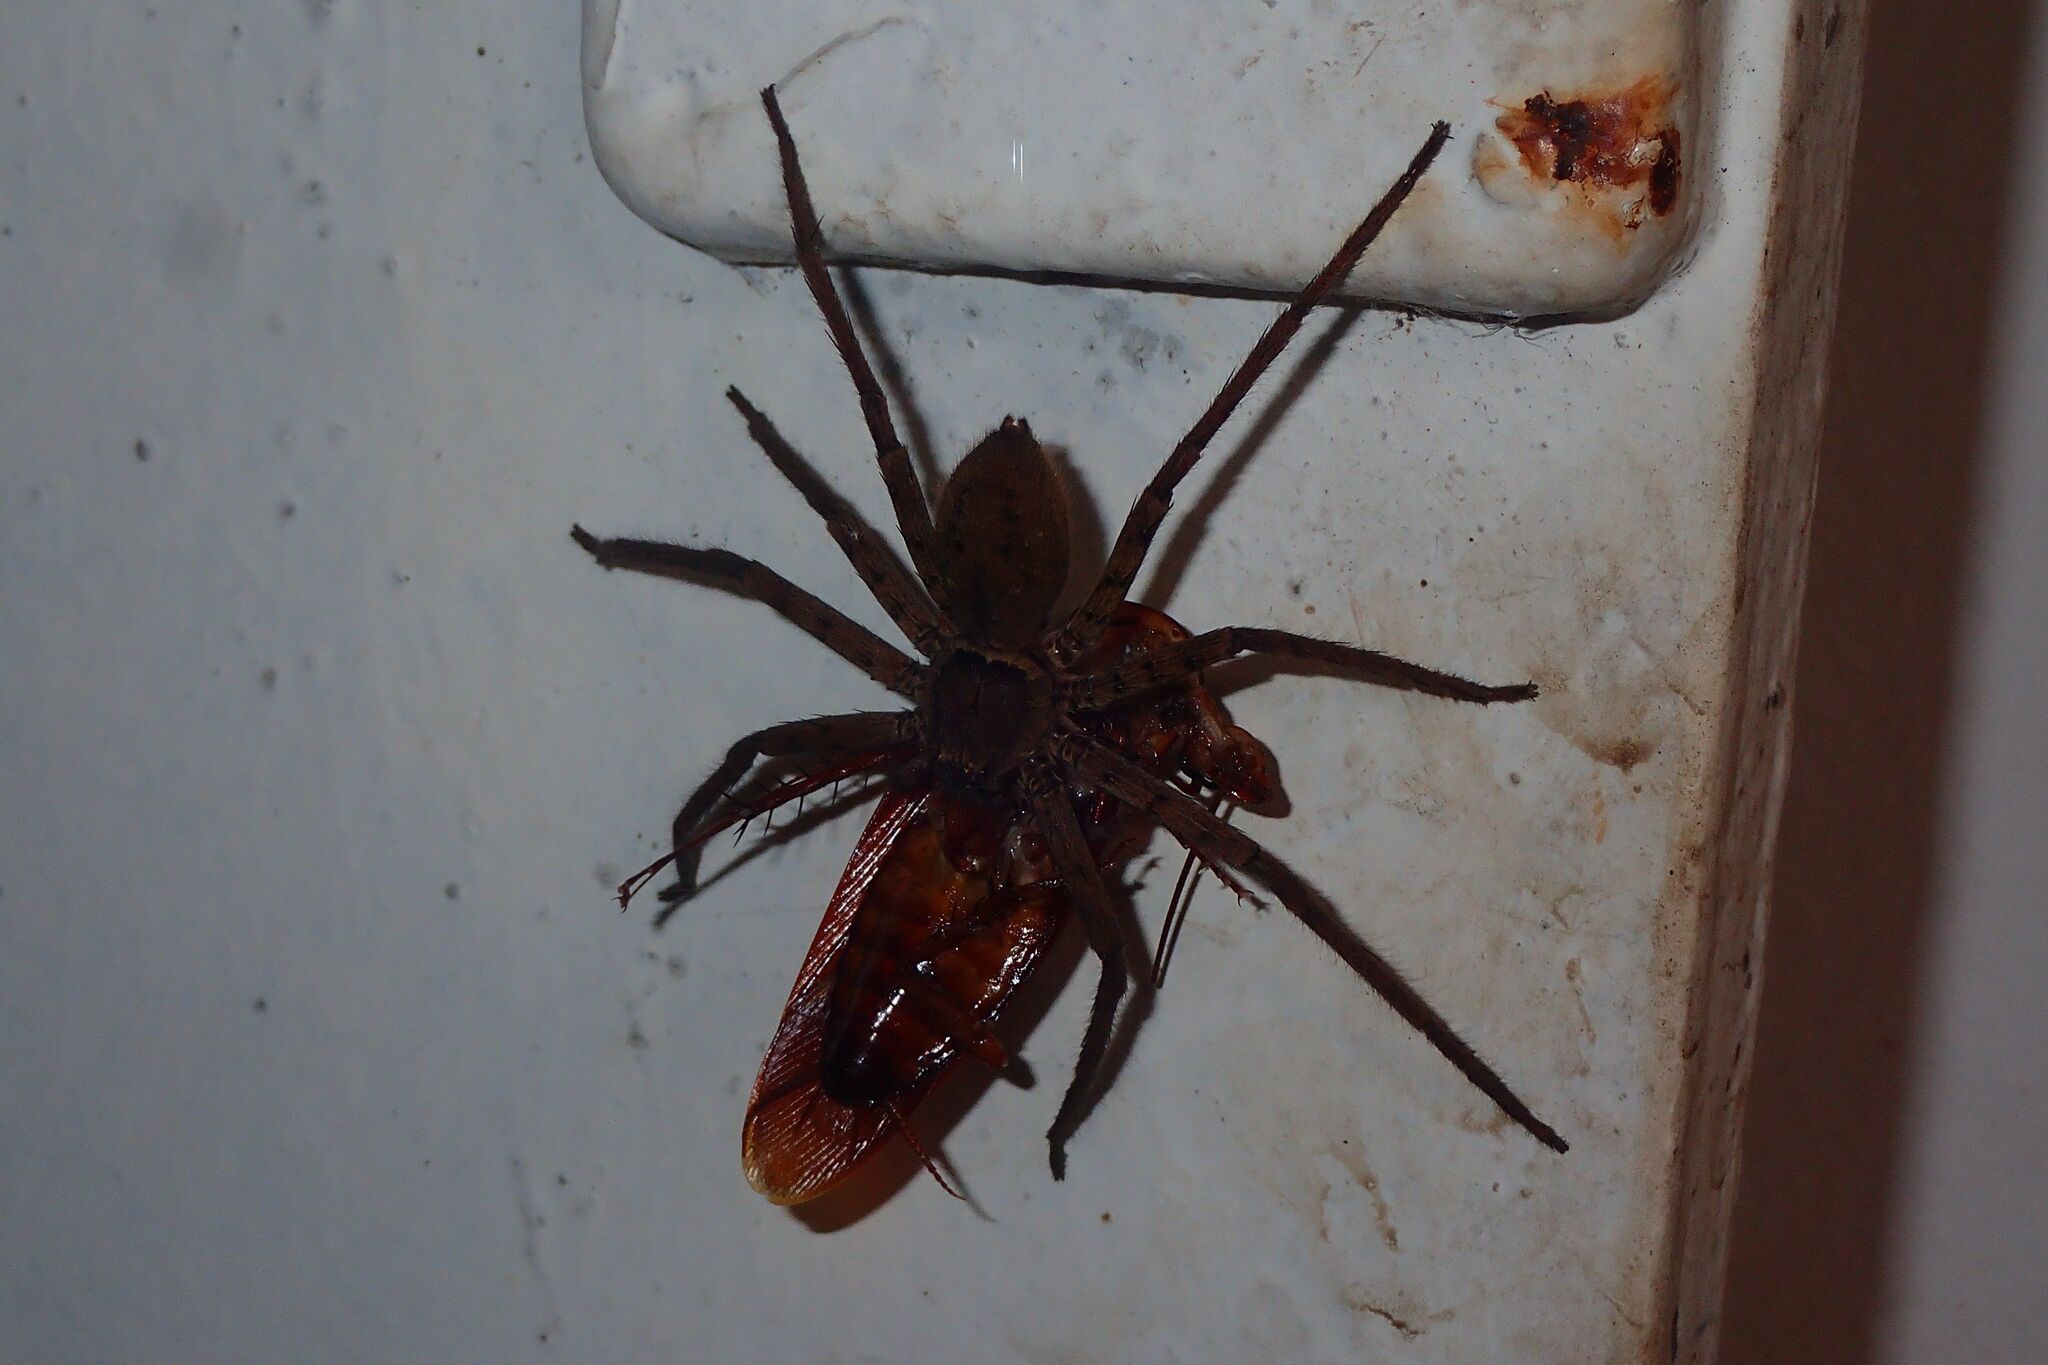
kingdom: Animalia
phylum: Arthropoda
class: Arachnida
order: Araneae
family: Sparassidae
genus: Heteropoda
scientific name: Heteropoda venatoria
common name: Huntsman spider
